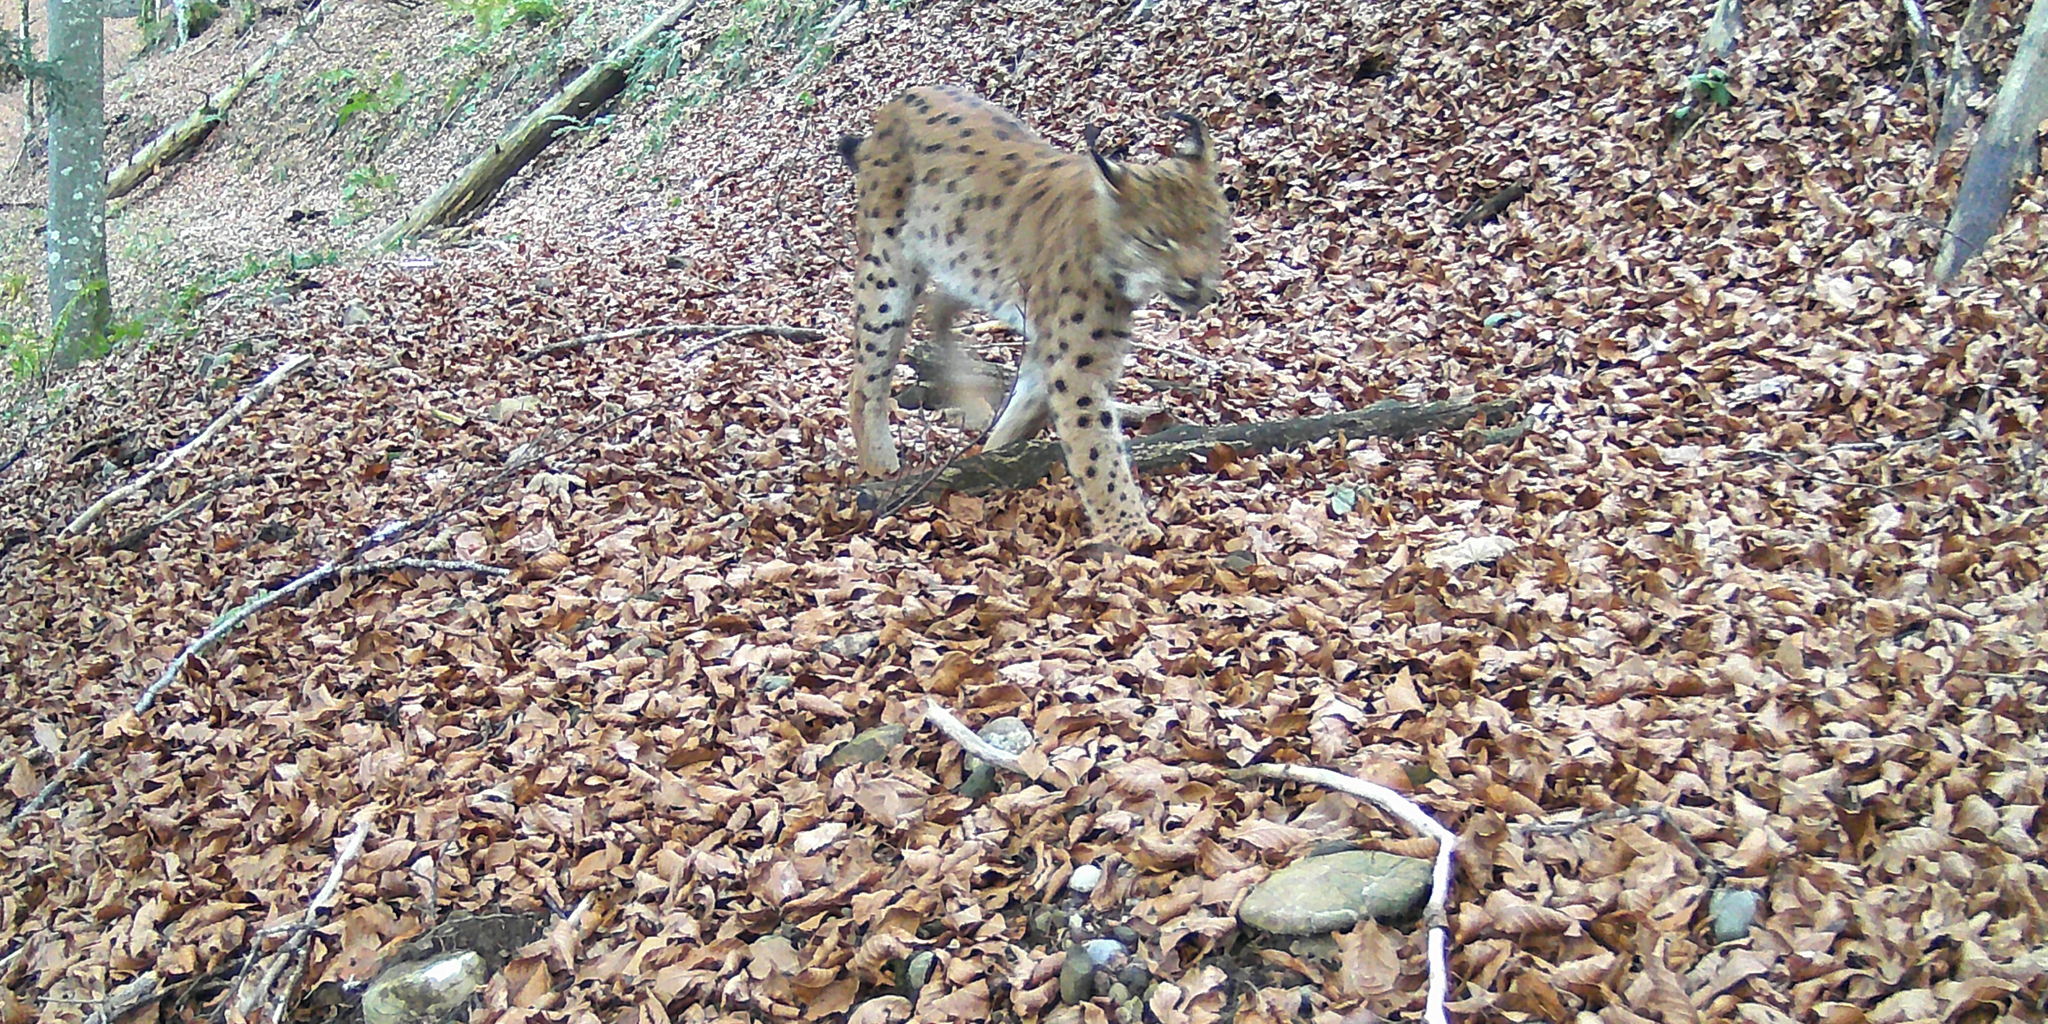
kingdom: Animalia
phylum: Chordata
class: Mammalia
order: Carnivora
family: Felidae
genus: Lynx
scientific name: Lynx lynx
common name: Eurasian lynx
